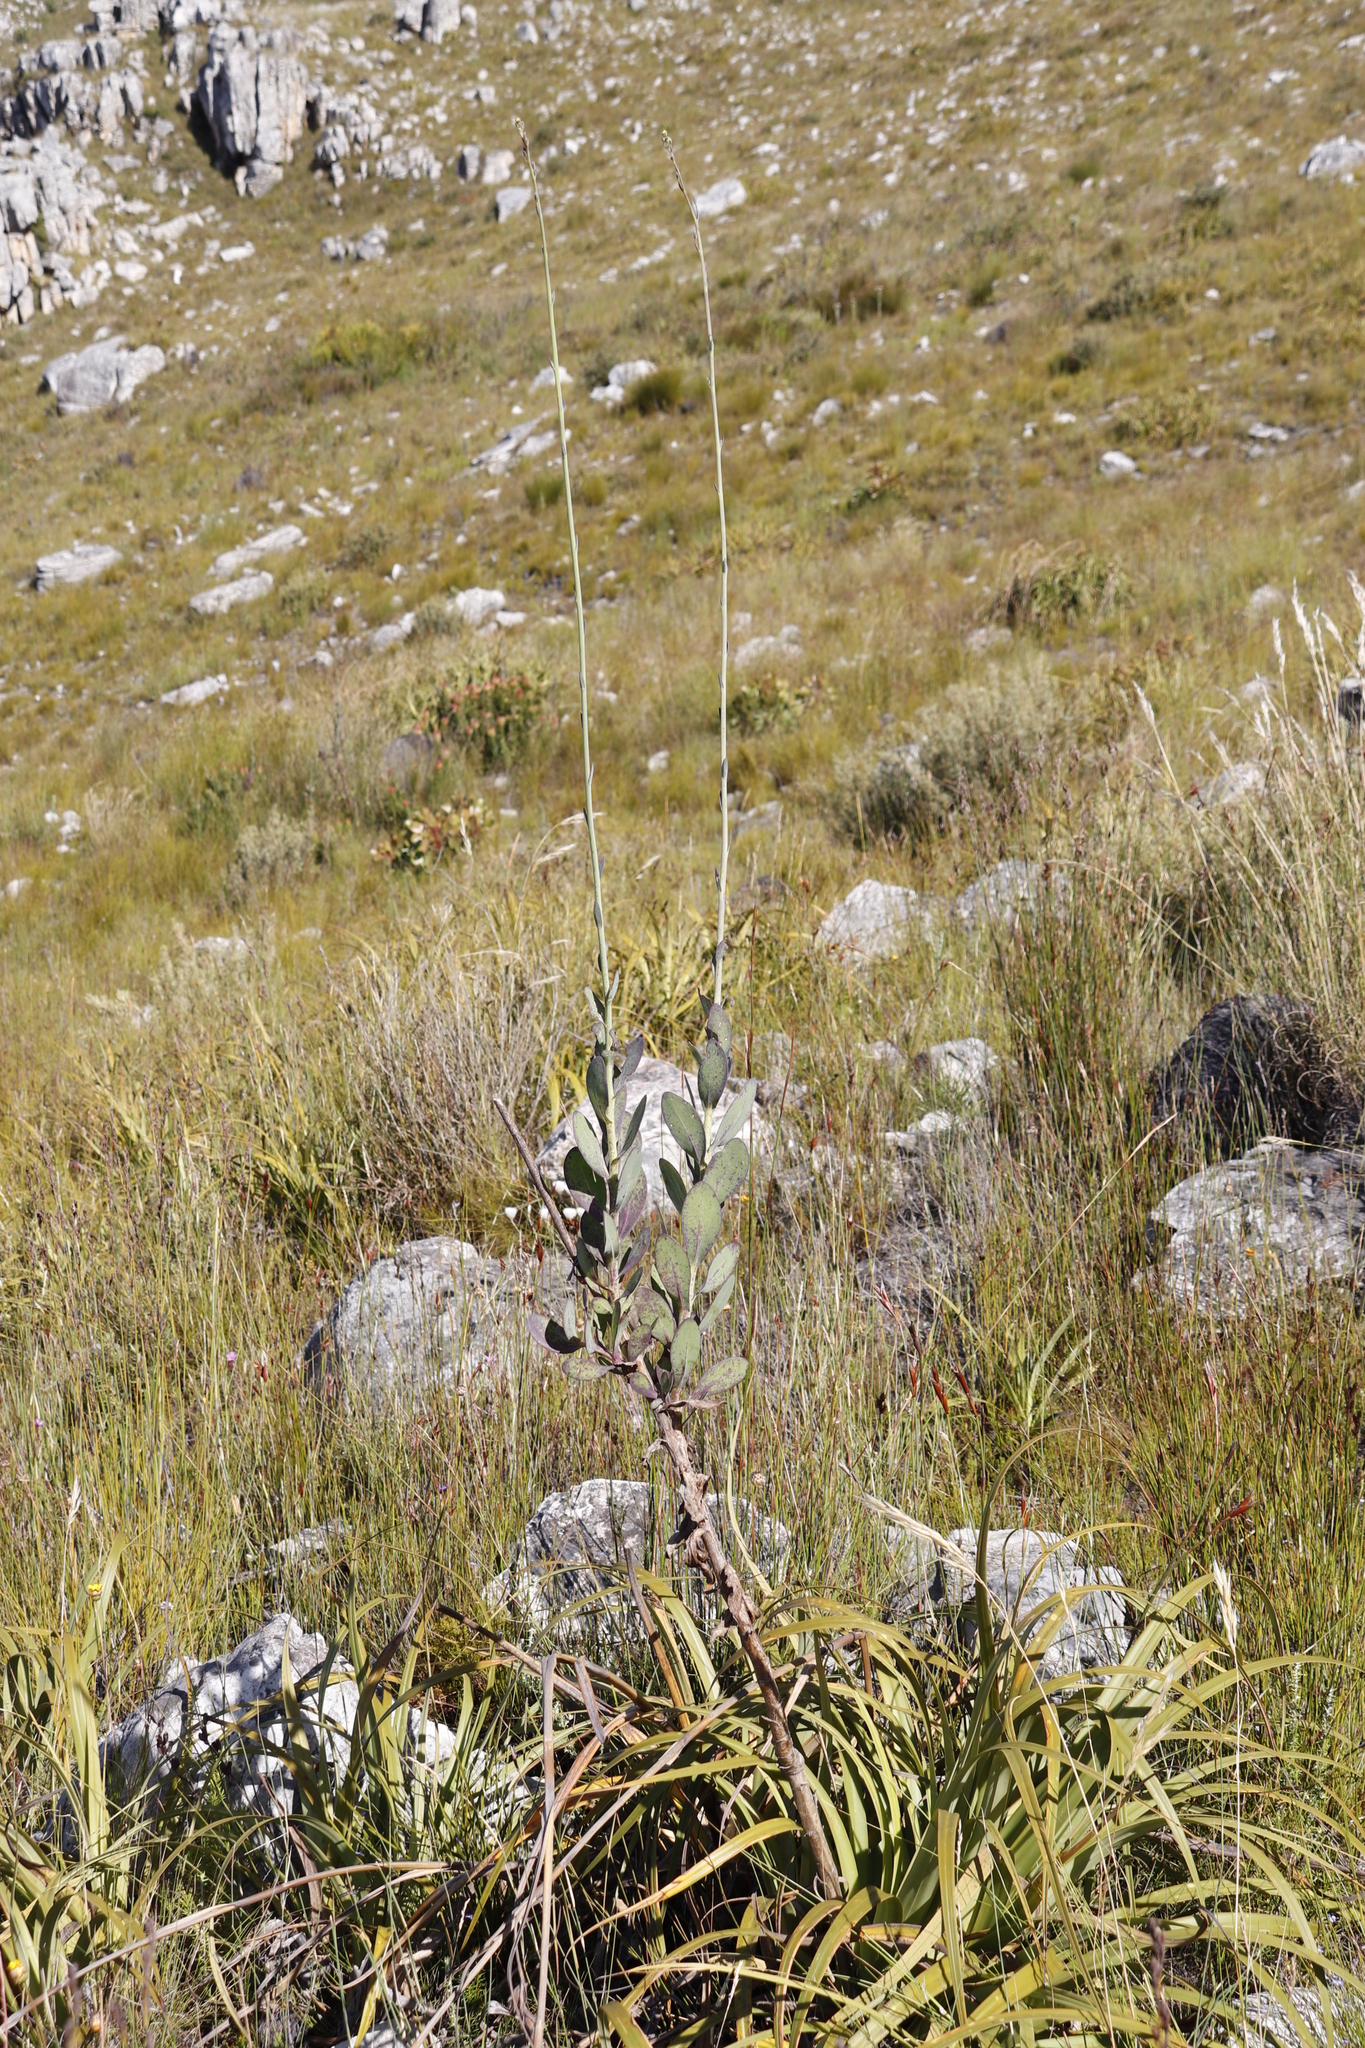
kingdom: Plantae
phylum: Tracheophyta
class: Magnoliopsida
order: Asterales
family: Asteraceae
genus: Othonna
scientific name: Othonna quinquedentata
